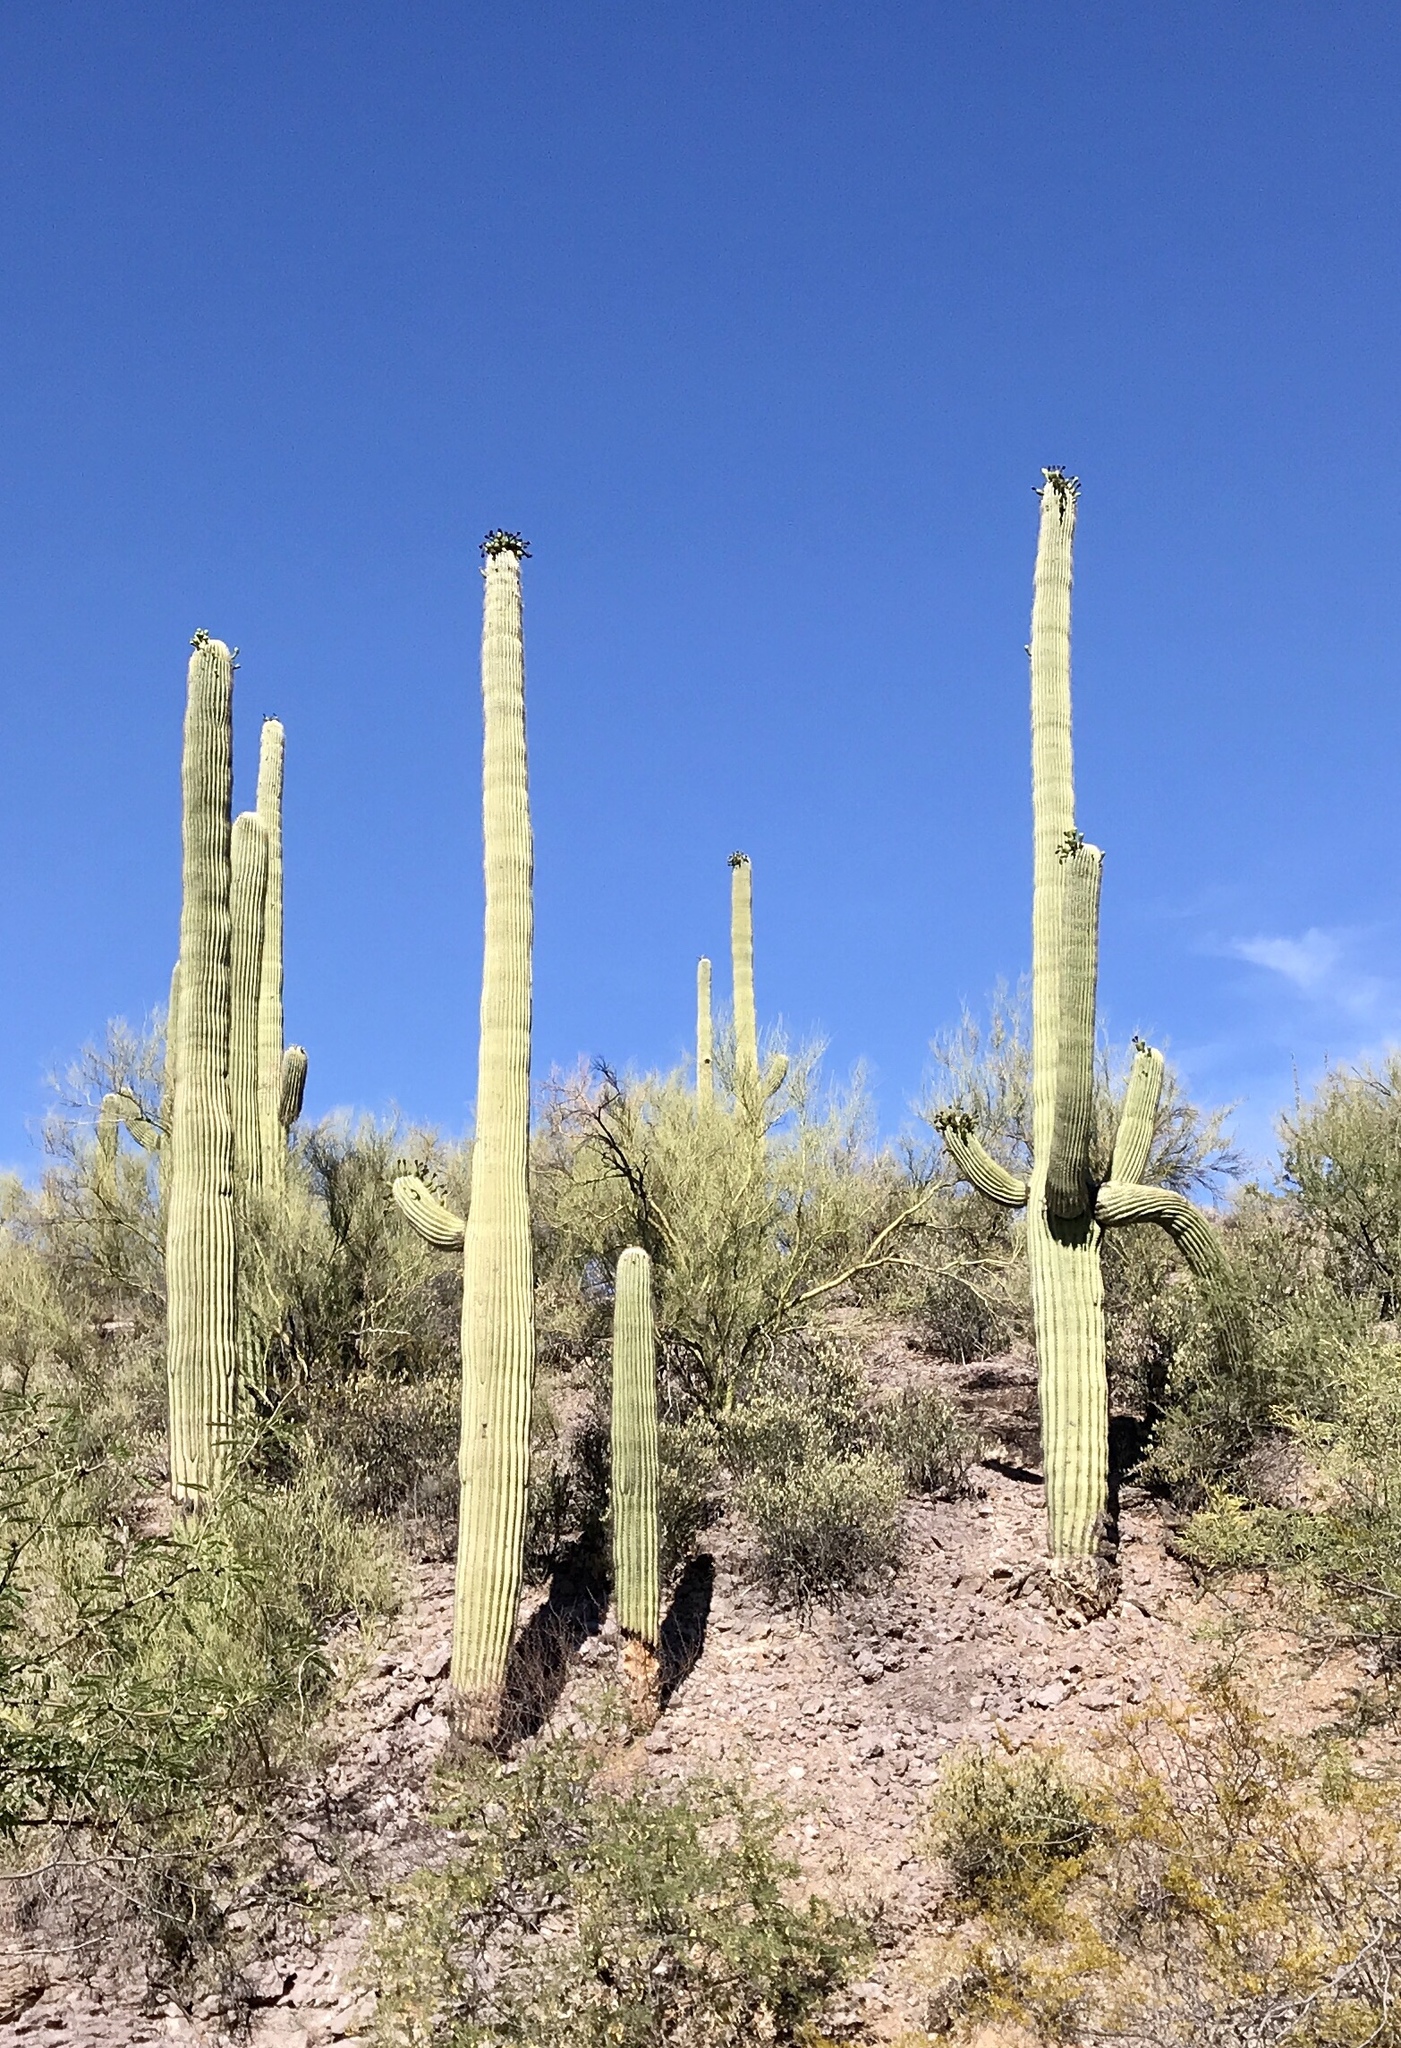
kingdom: Plantae
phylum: Tracheophyta
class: Magnoliopsida
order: Caryophyllales
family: Cactaceae
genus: Carnegiea
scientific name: Carnegiea gigantea
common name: Saguaro
